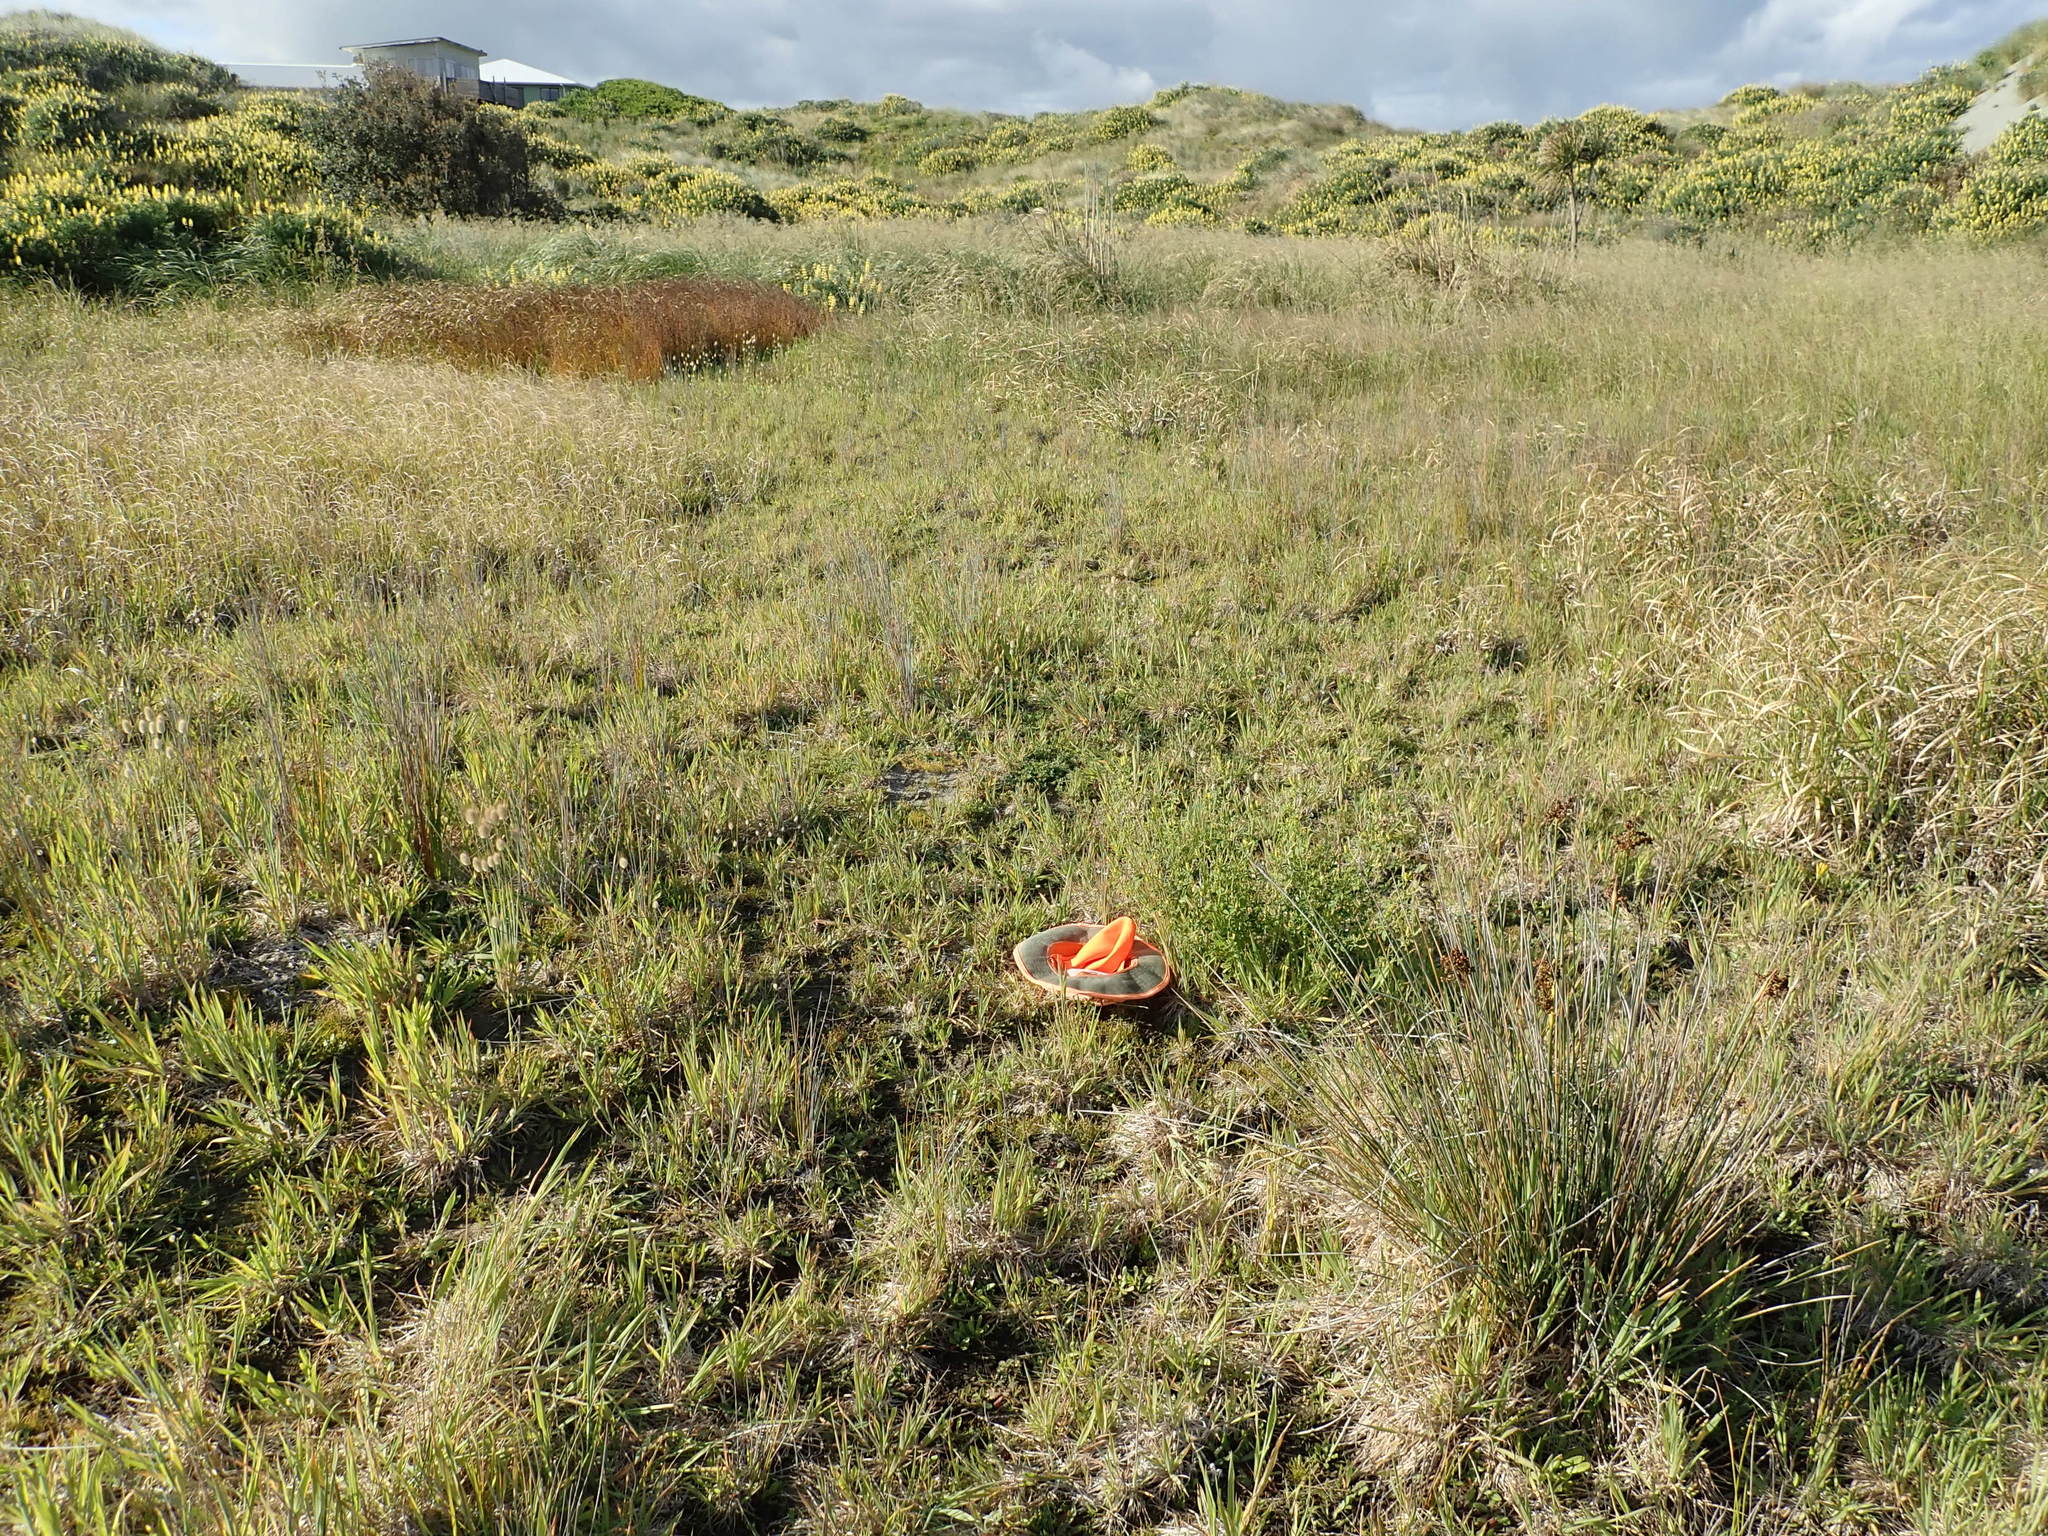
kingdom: Plantae
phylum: Tracheophyta
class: Magnoliopsida
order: Fabales
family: Fabaceae
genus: Melilotus
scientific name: Melilotus indicus
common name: Small melilot
